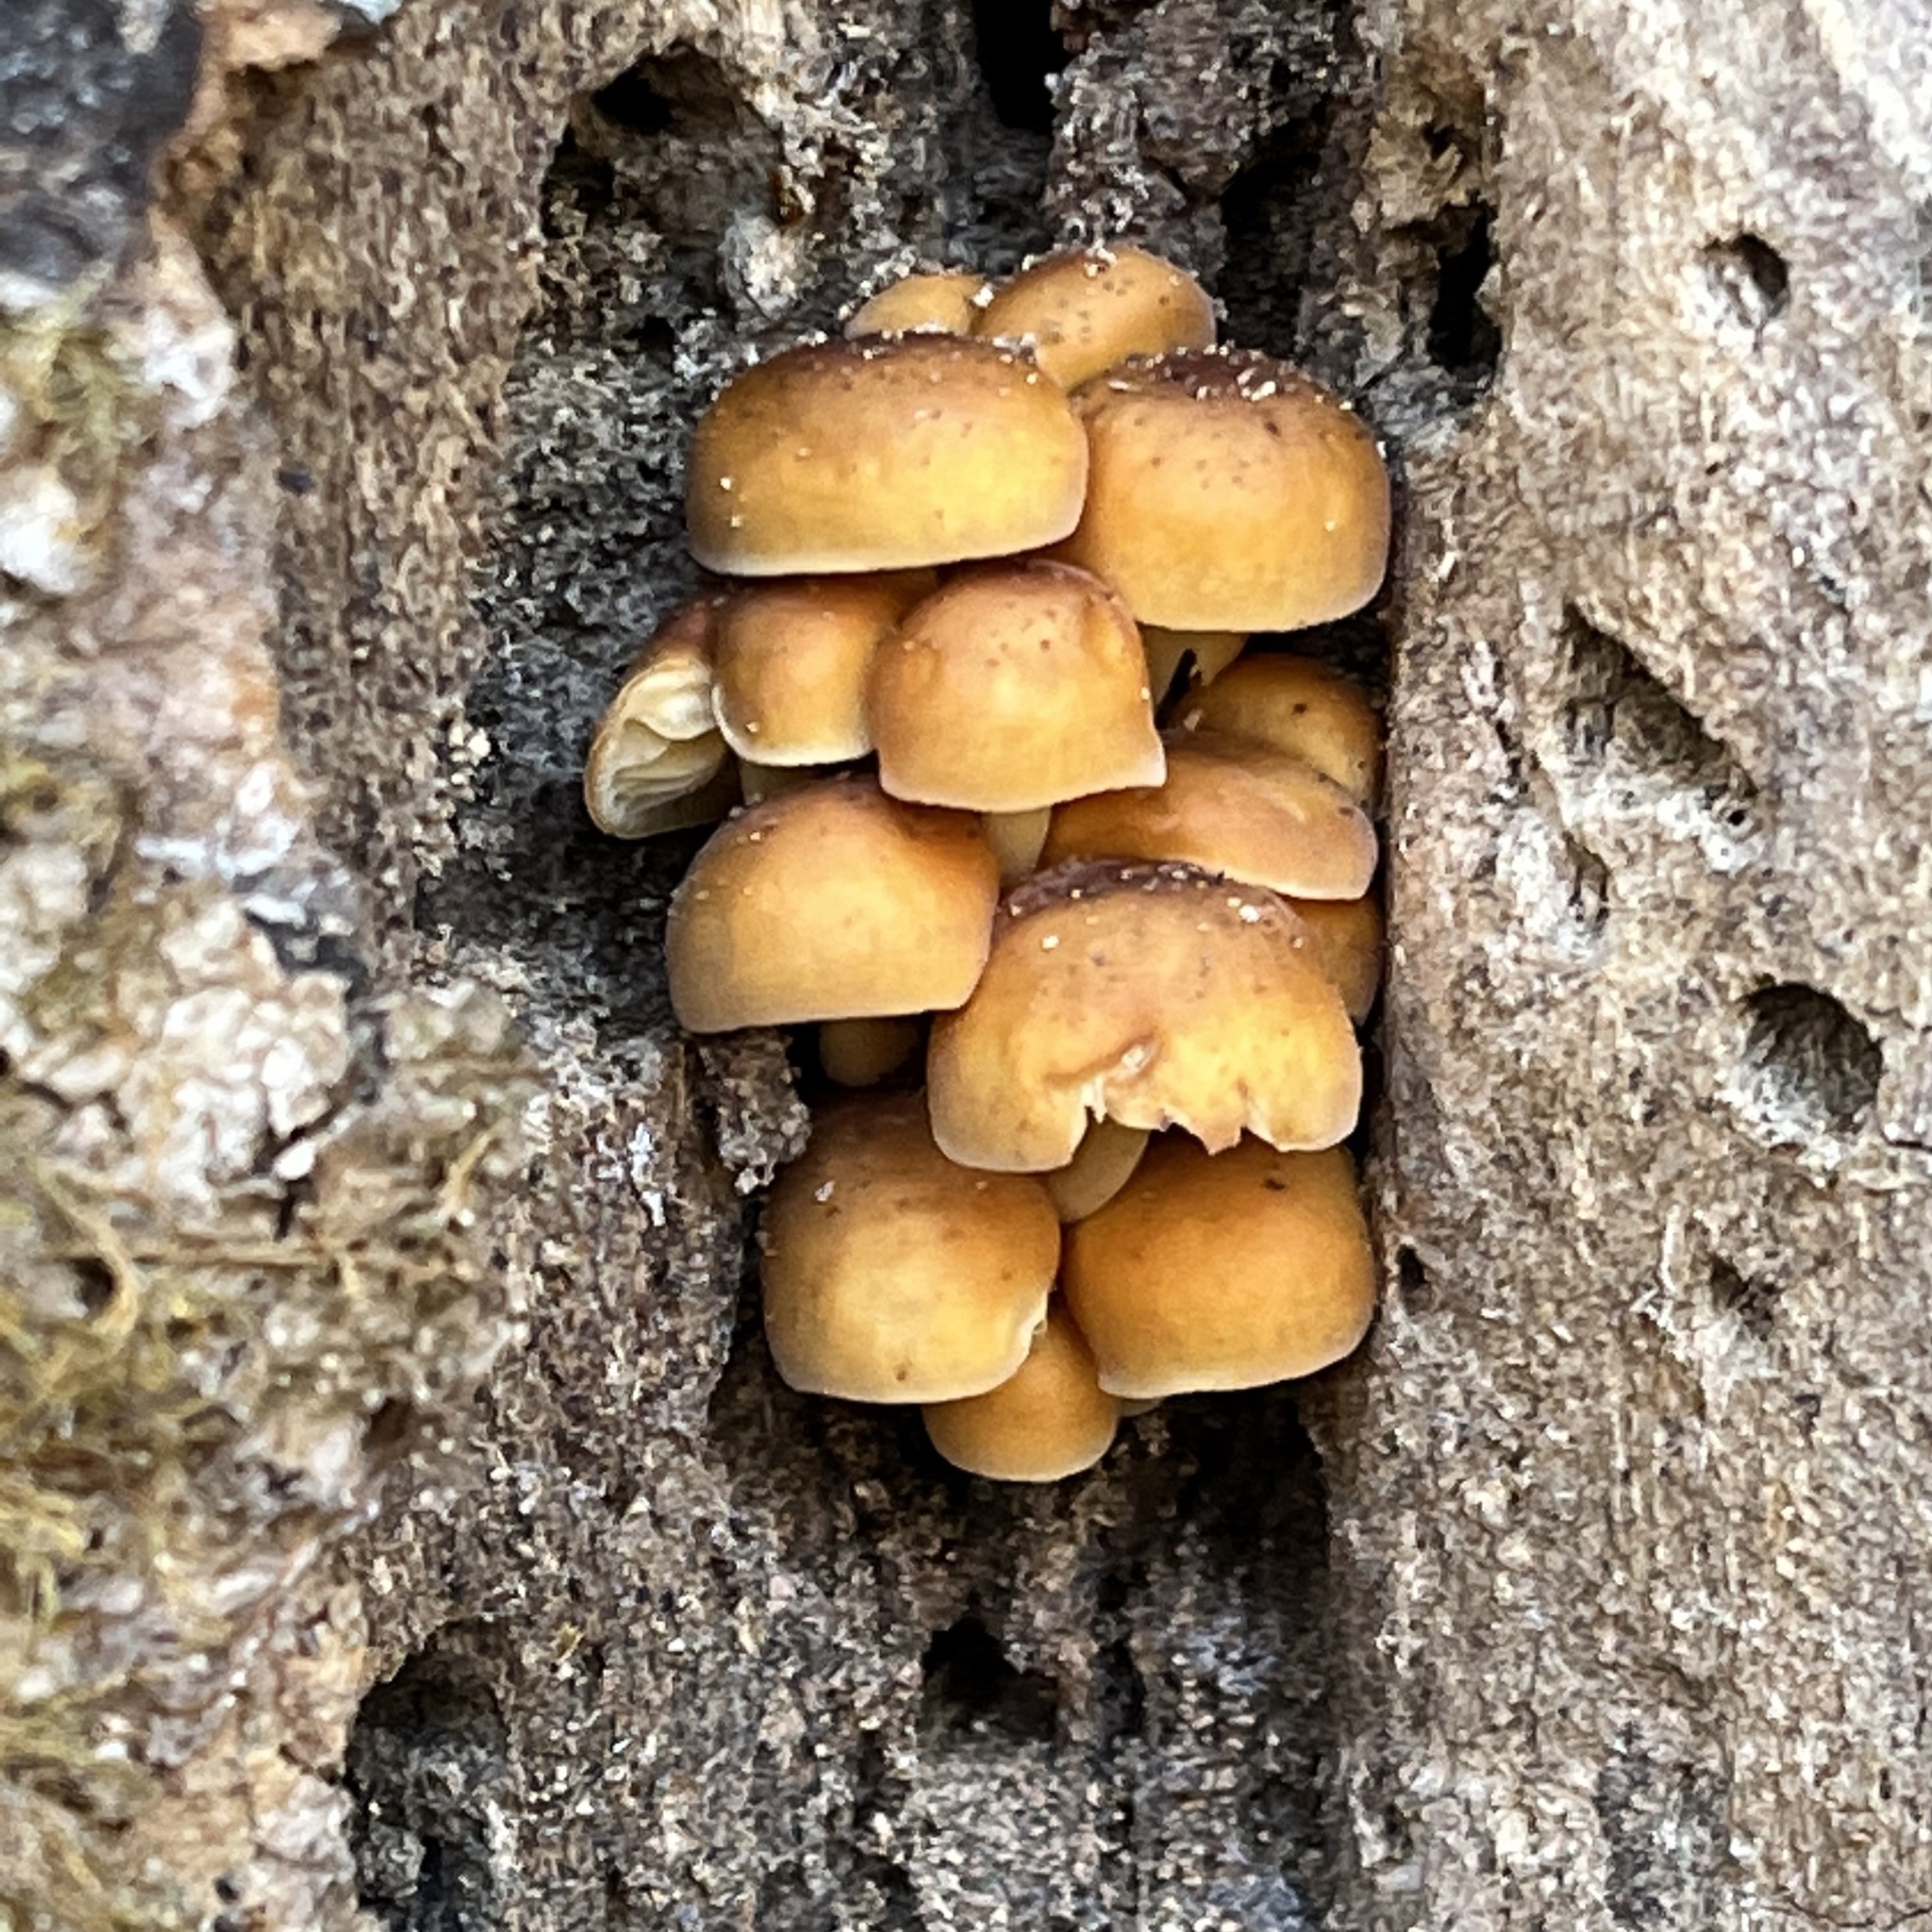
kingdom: Fungi
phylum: Basidiomycota
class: Agaricomycetes
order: Agaricales
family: Physalacriaceae
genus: Flammulina
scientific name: Flammulina velutipes
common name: Velvet shank
